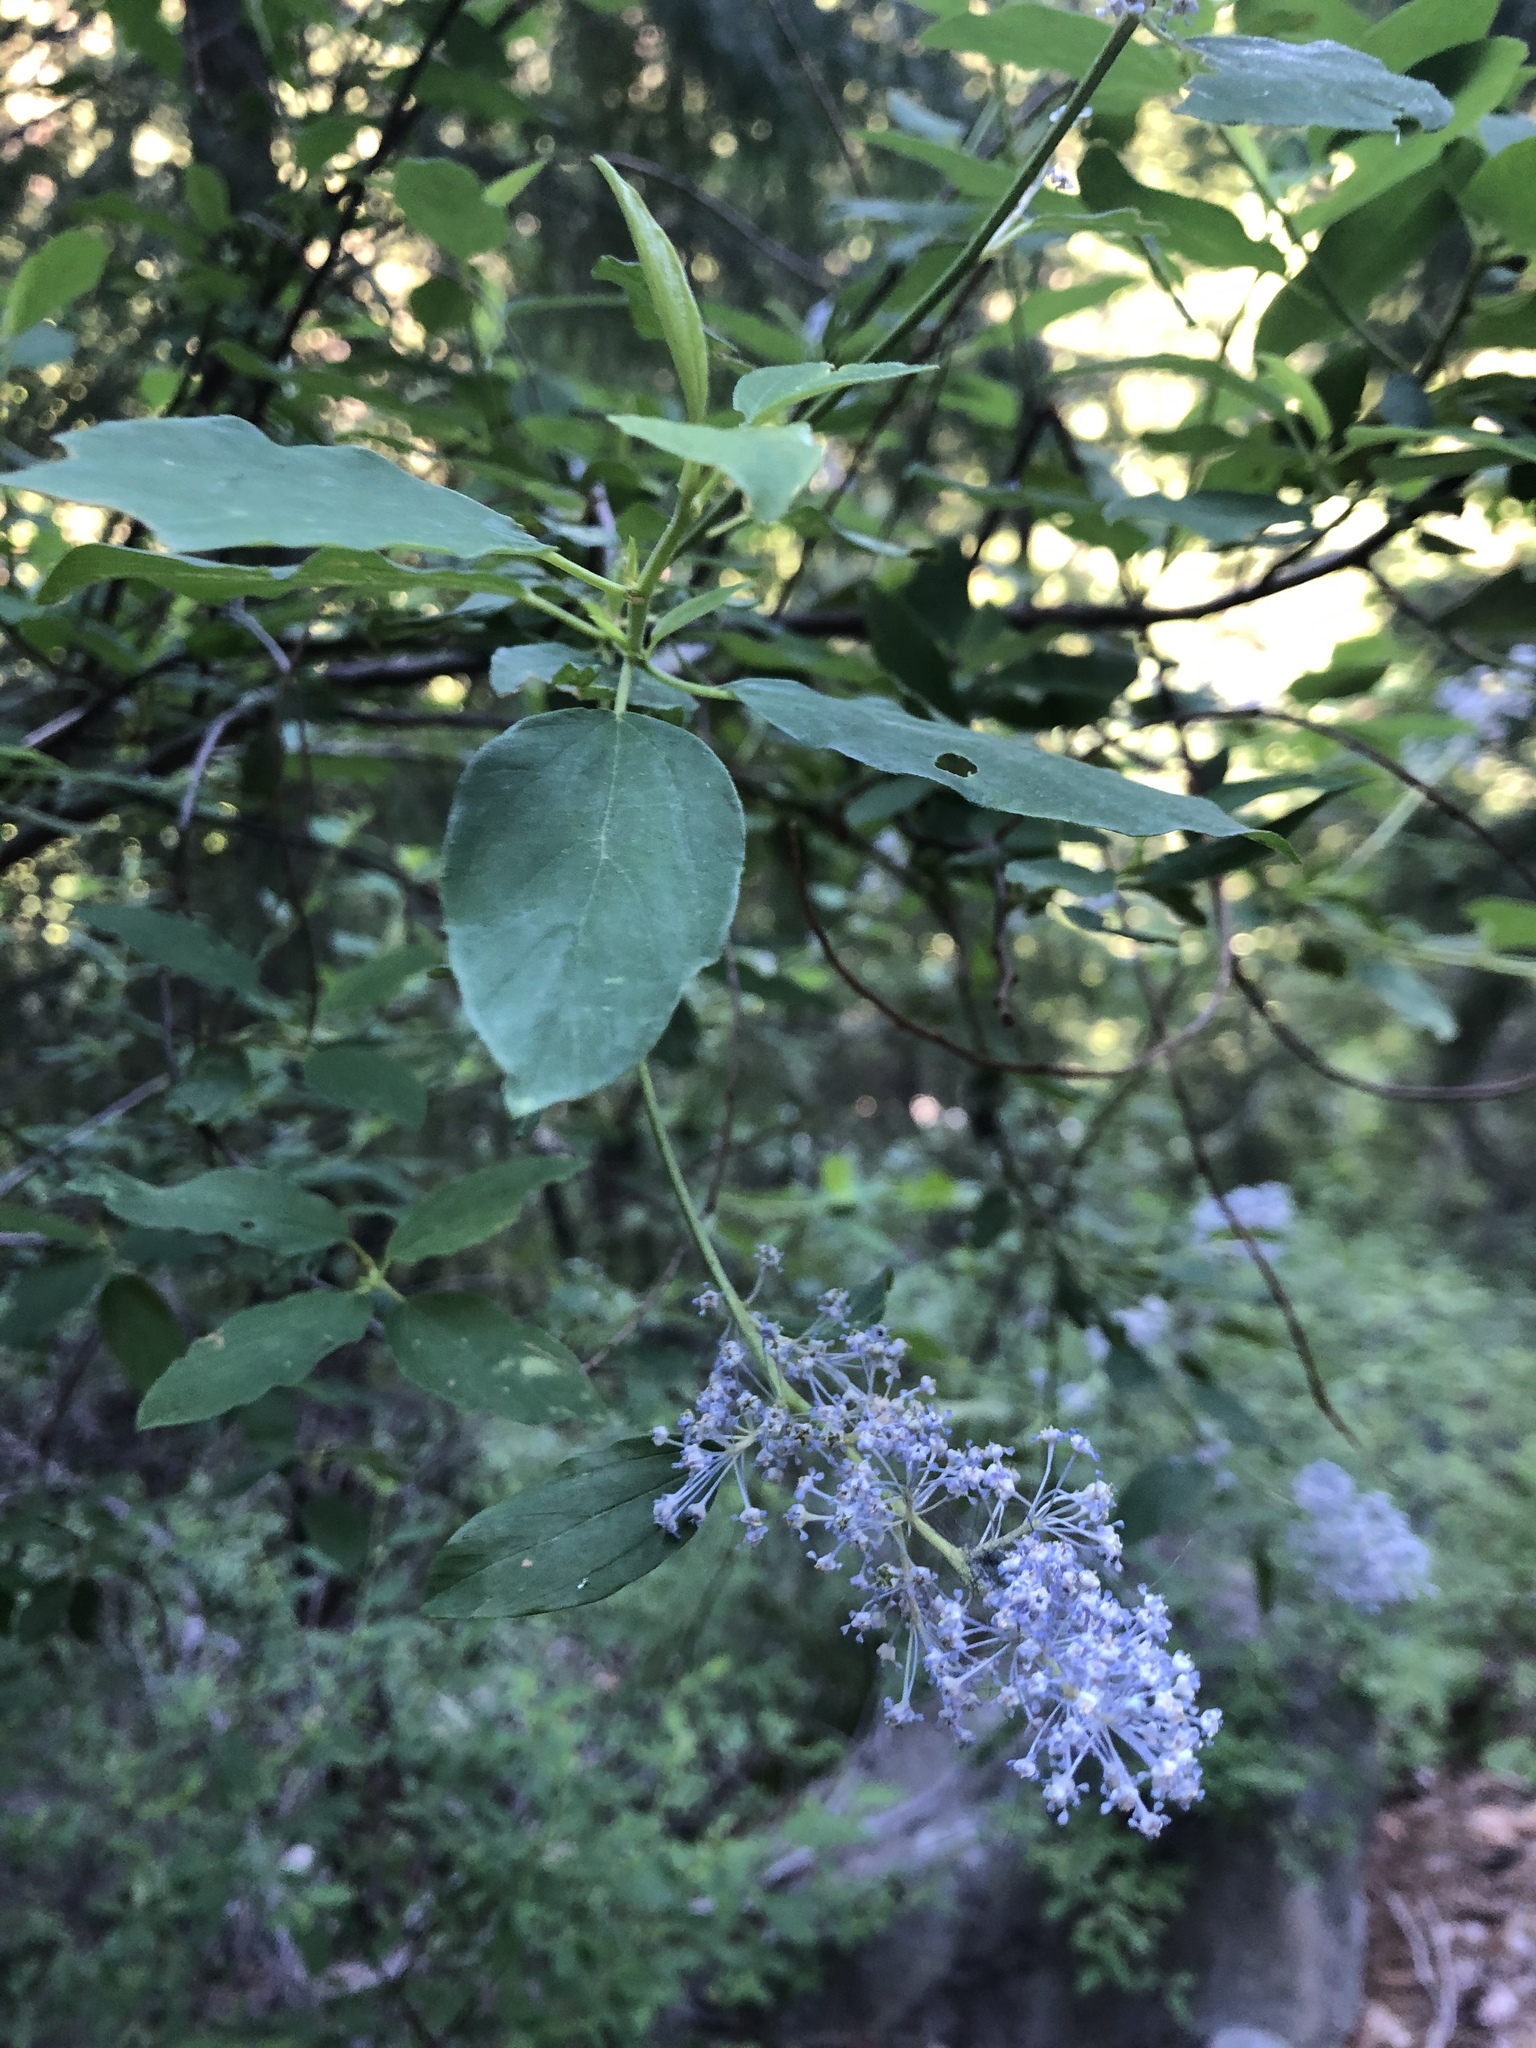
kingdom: Plantae
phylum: Tracheophyta
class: Magnoliopsida
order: Rosales
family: Rhamnaceae
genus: Ceanothus
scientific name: Ceanothus integerrimus
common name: Deerbrush ceanothus
